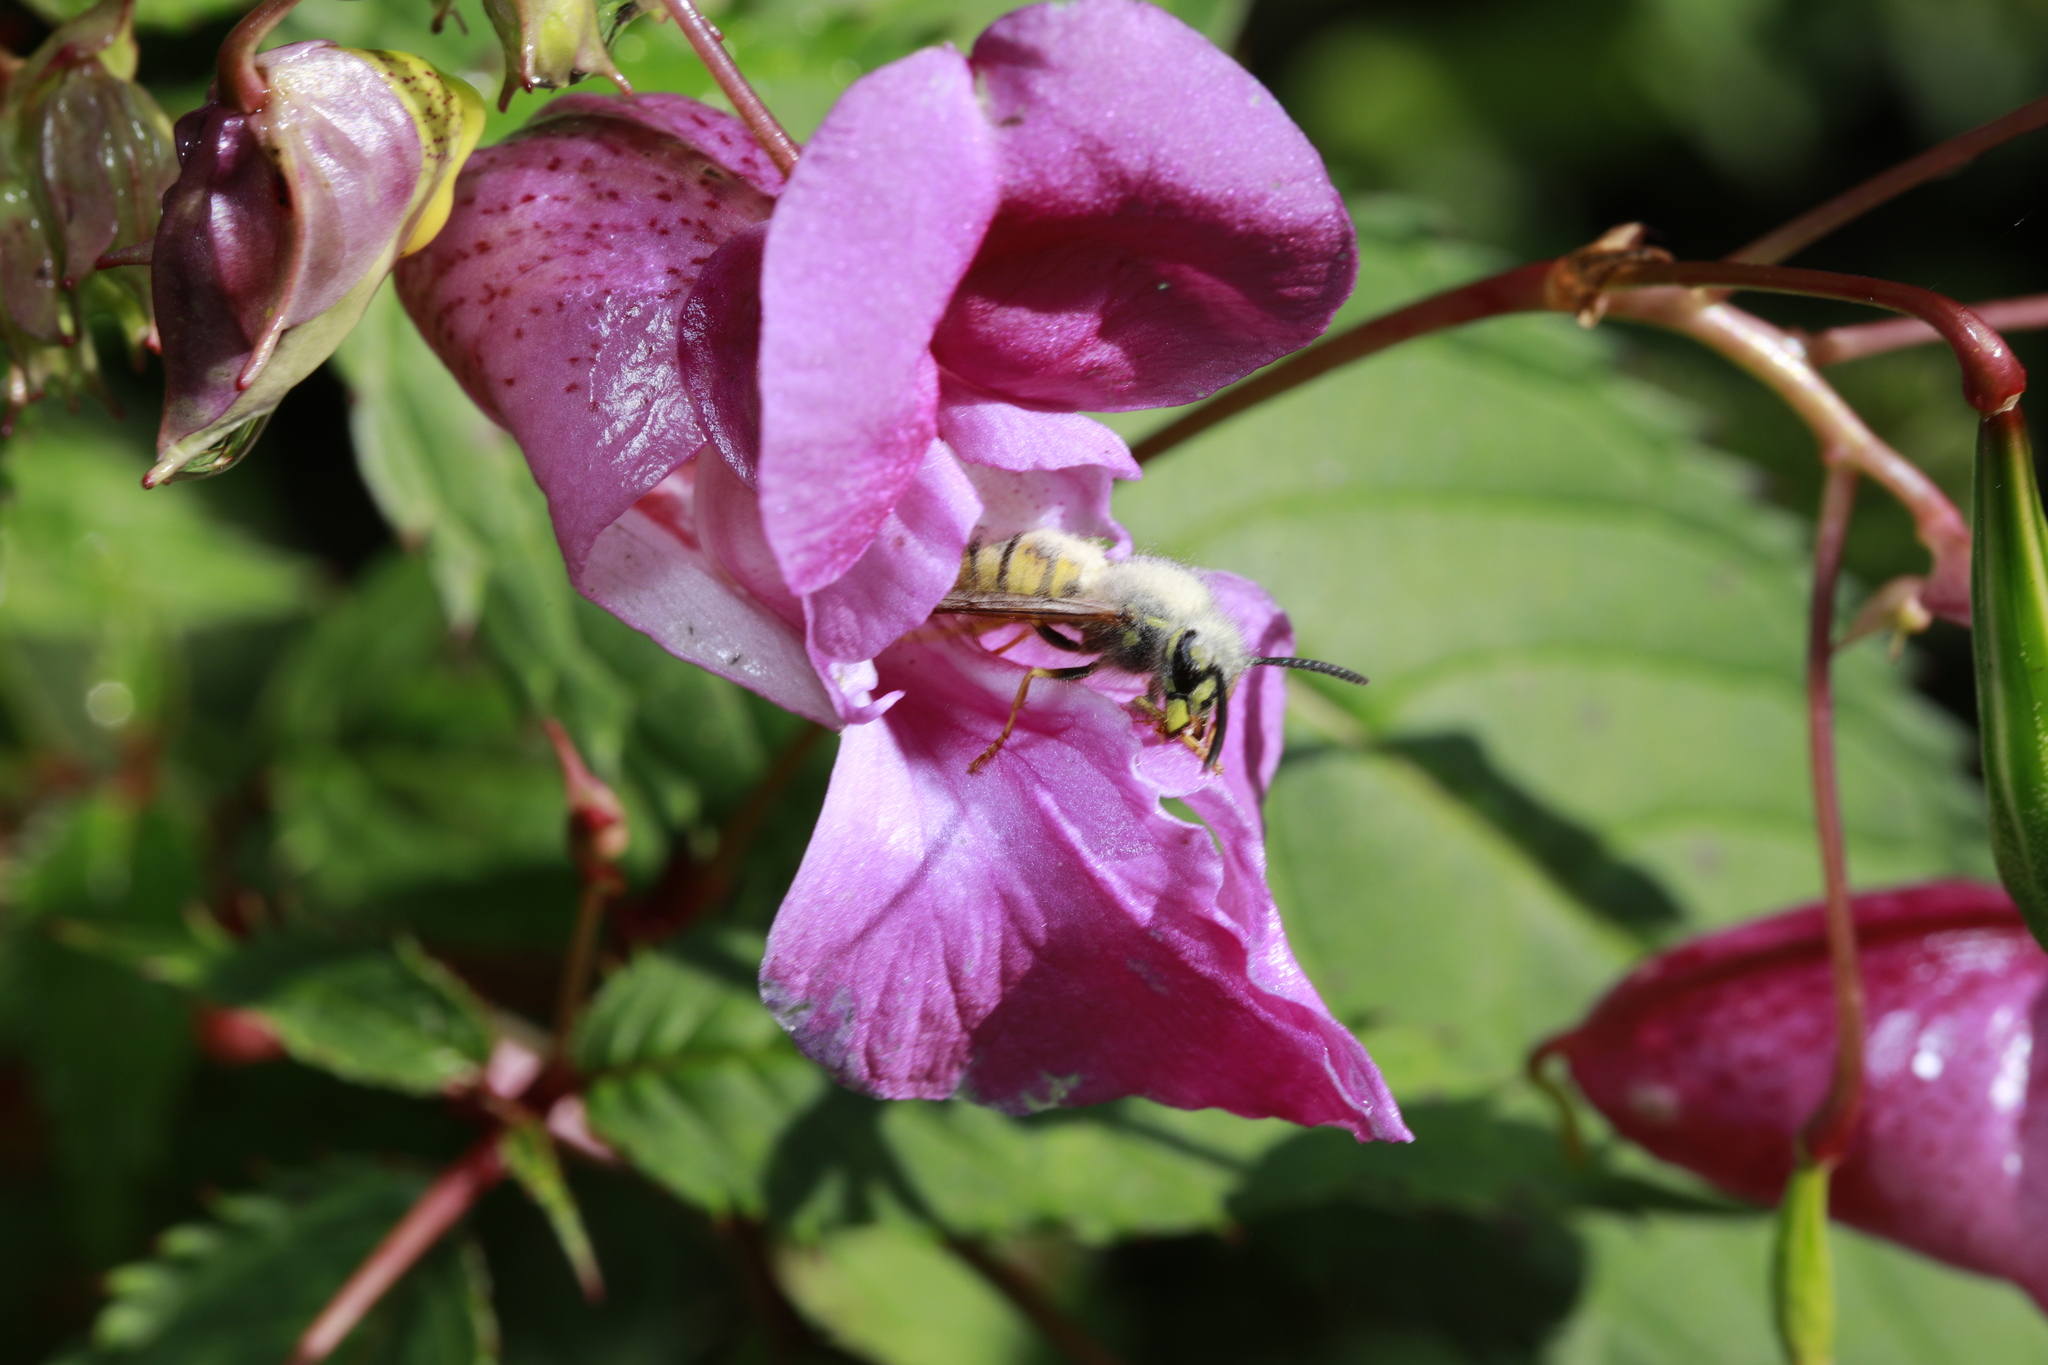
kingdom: Plantae
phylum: Tracheophyta
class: Magnoliopsida
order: Ericales
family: Balsaminaceae
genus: Impatiens
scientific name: Impatiens glandulifera
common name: Himalayan balsam
